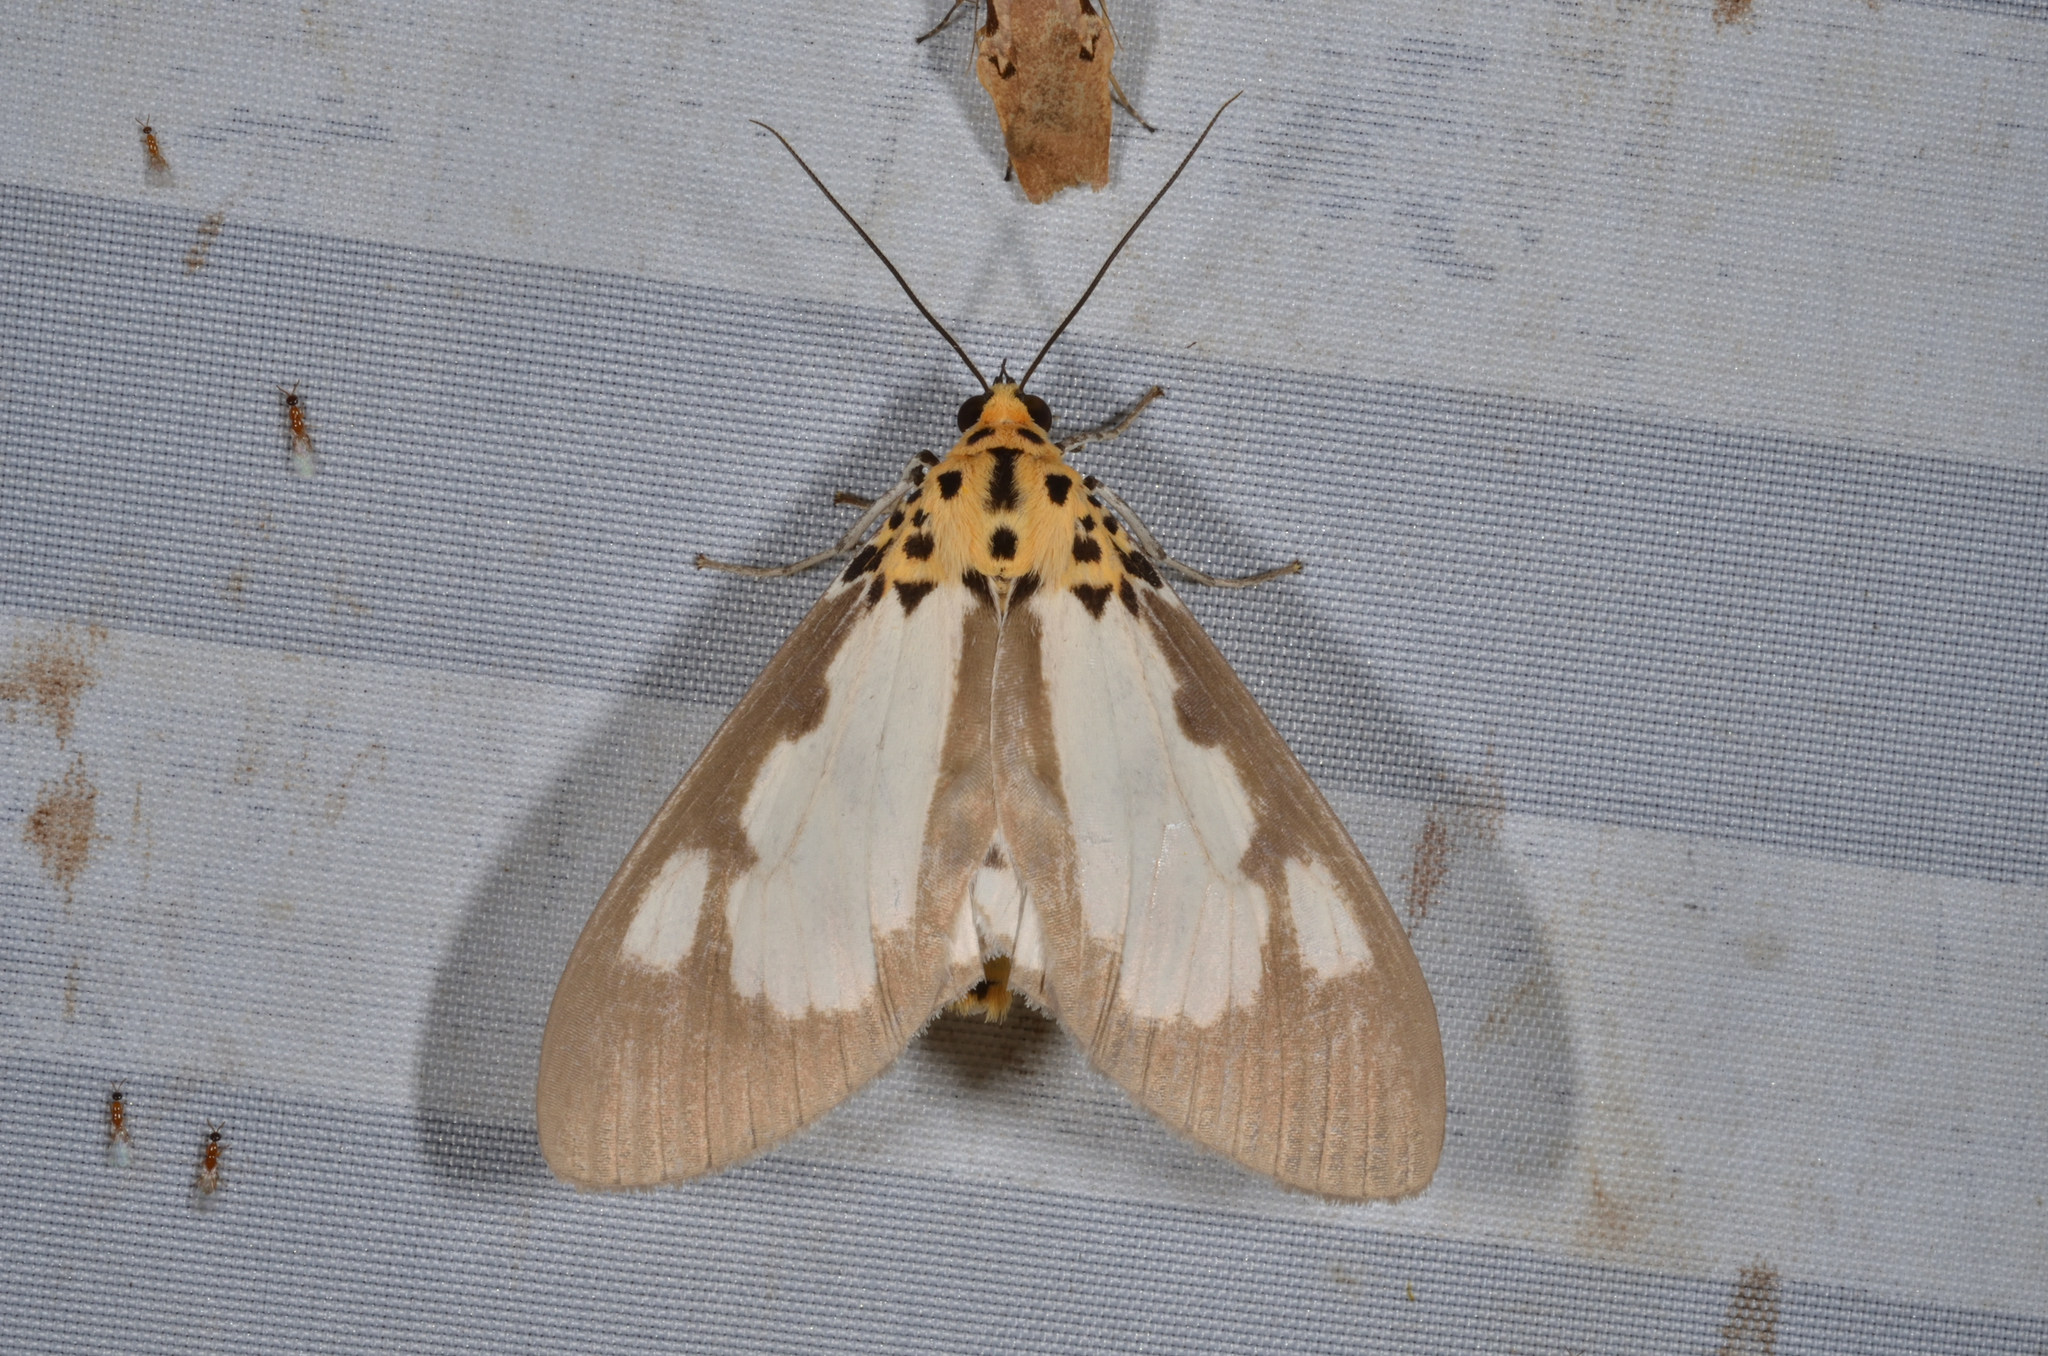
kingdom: Animalia
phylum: Arthropoda
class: Insecta
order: Lepidoptera
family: Erebidae
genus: Asota
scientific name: Asota plana
